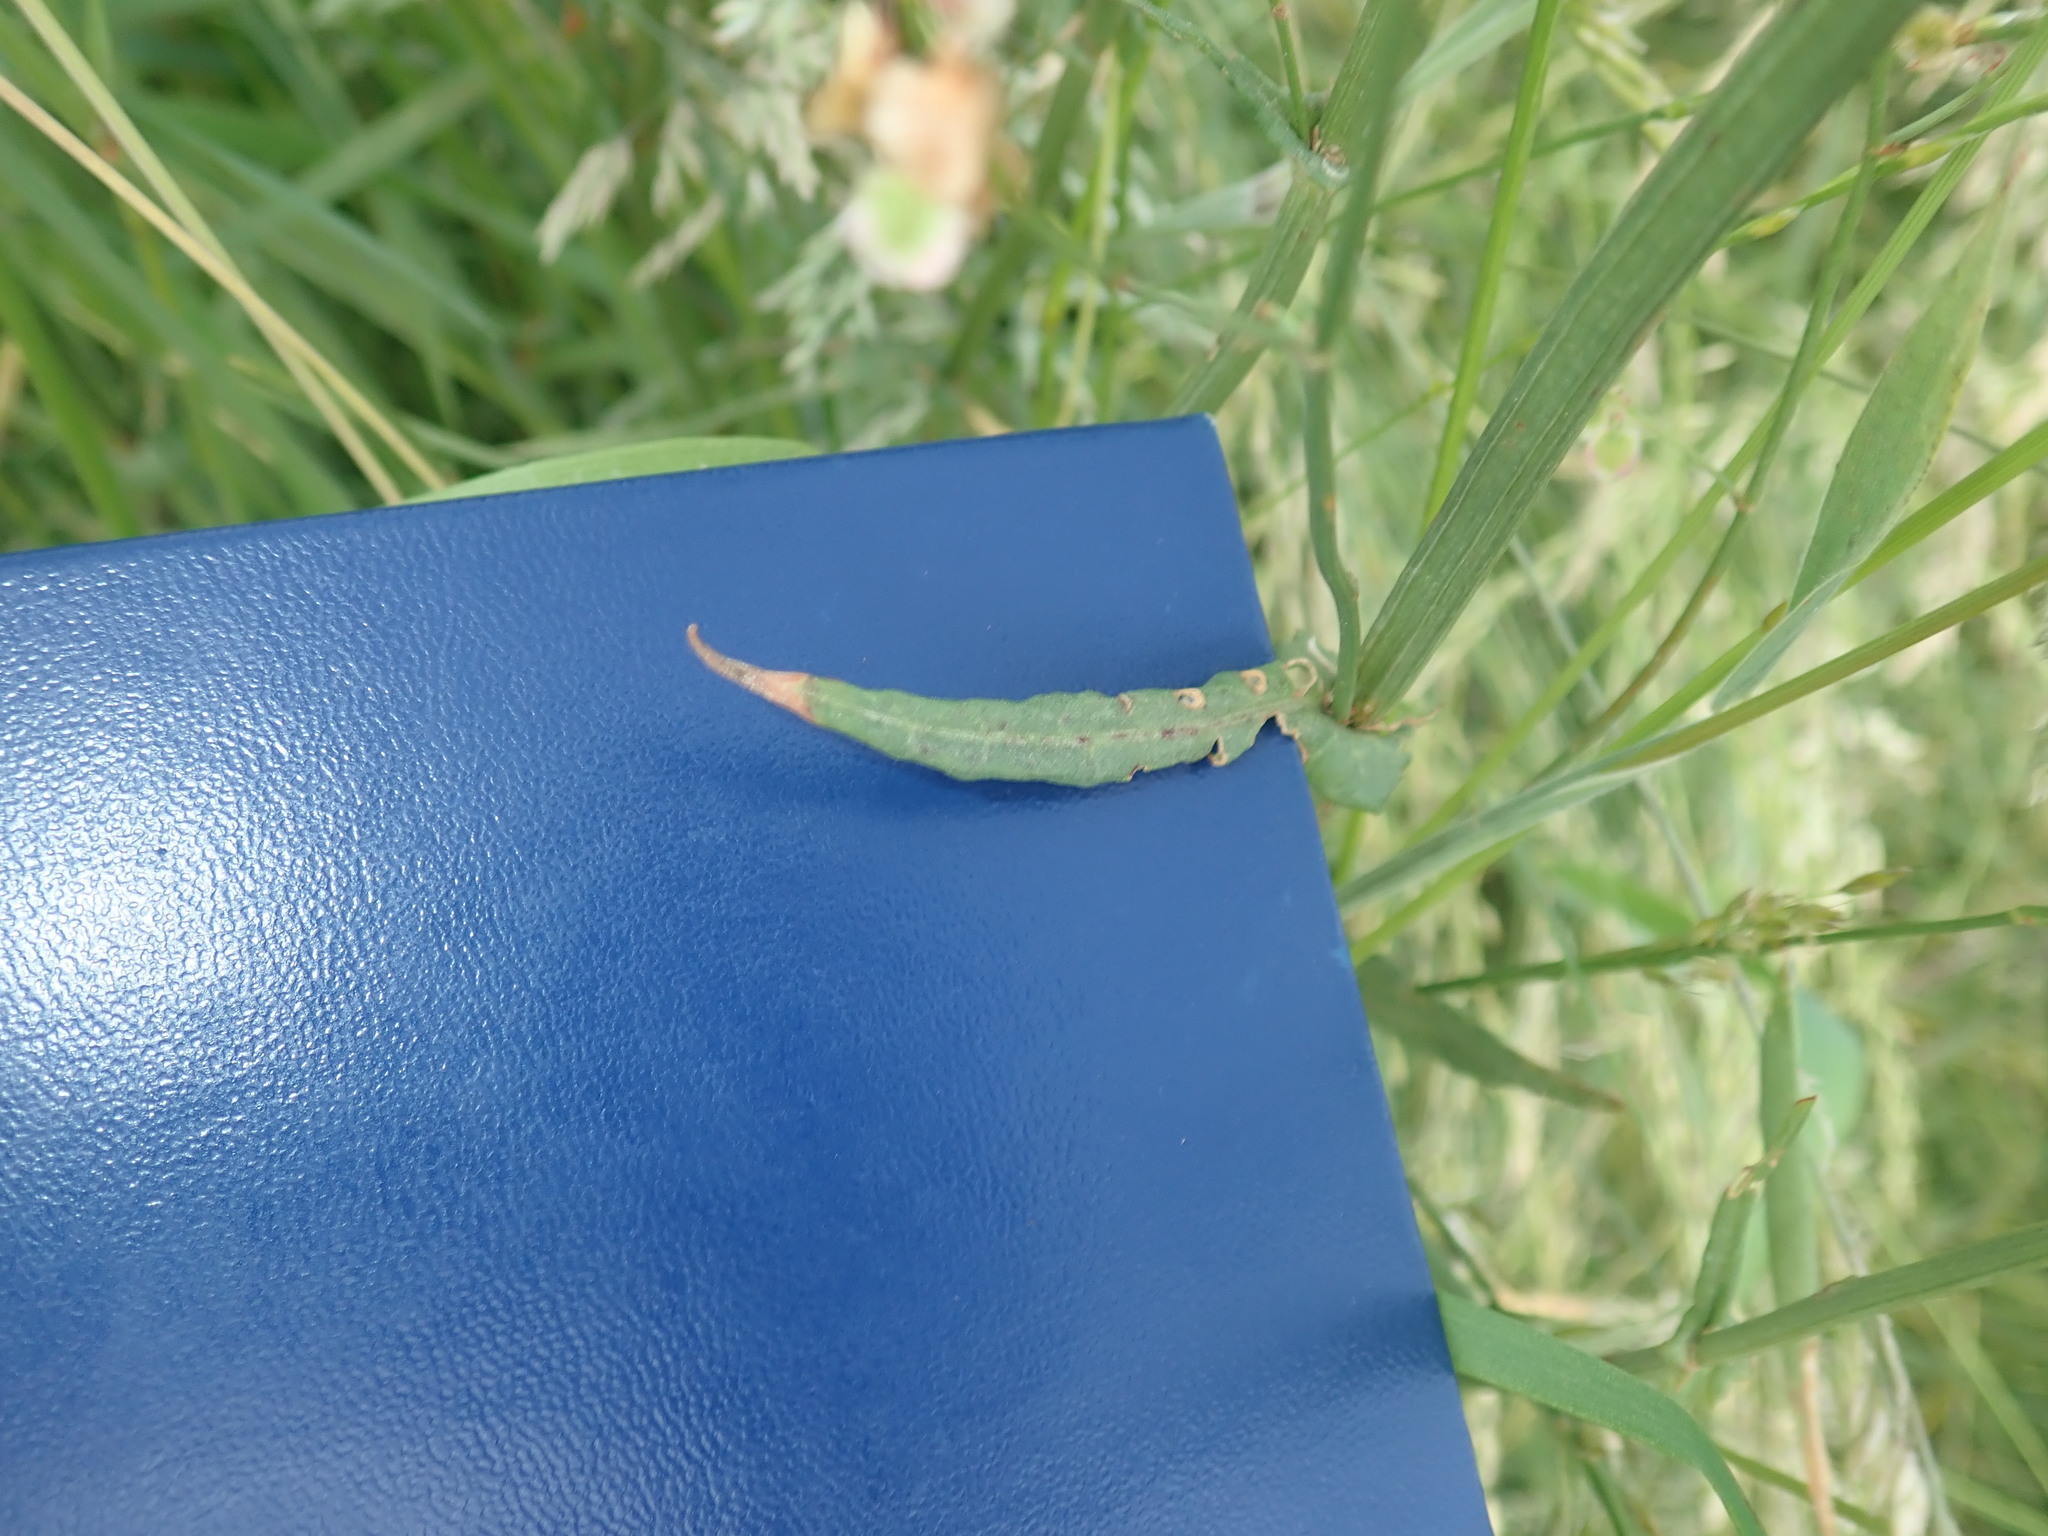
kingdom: Plantae
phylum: Tracheophyta
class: Magnoliopsida
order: Caryophyllales
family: Polygonaceae
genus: Rumex
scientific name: Rumex acetosa
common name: Garden sorrel
